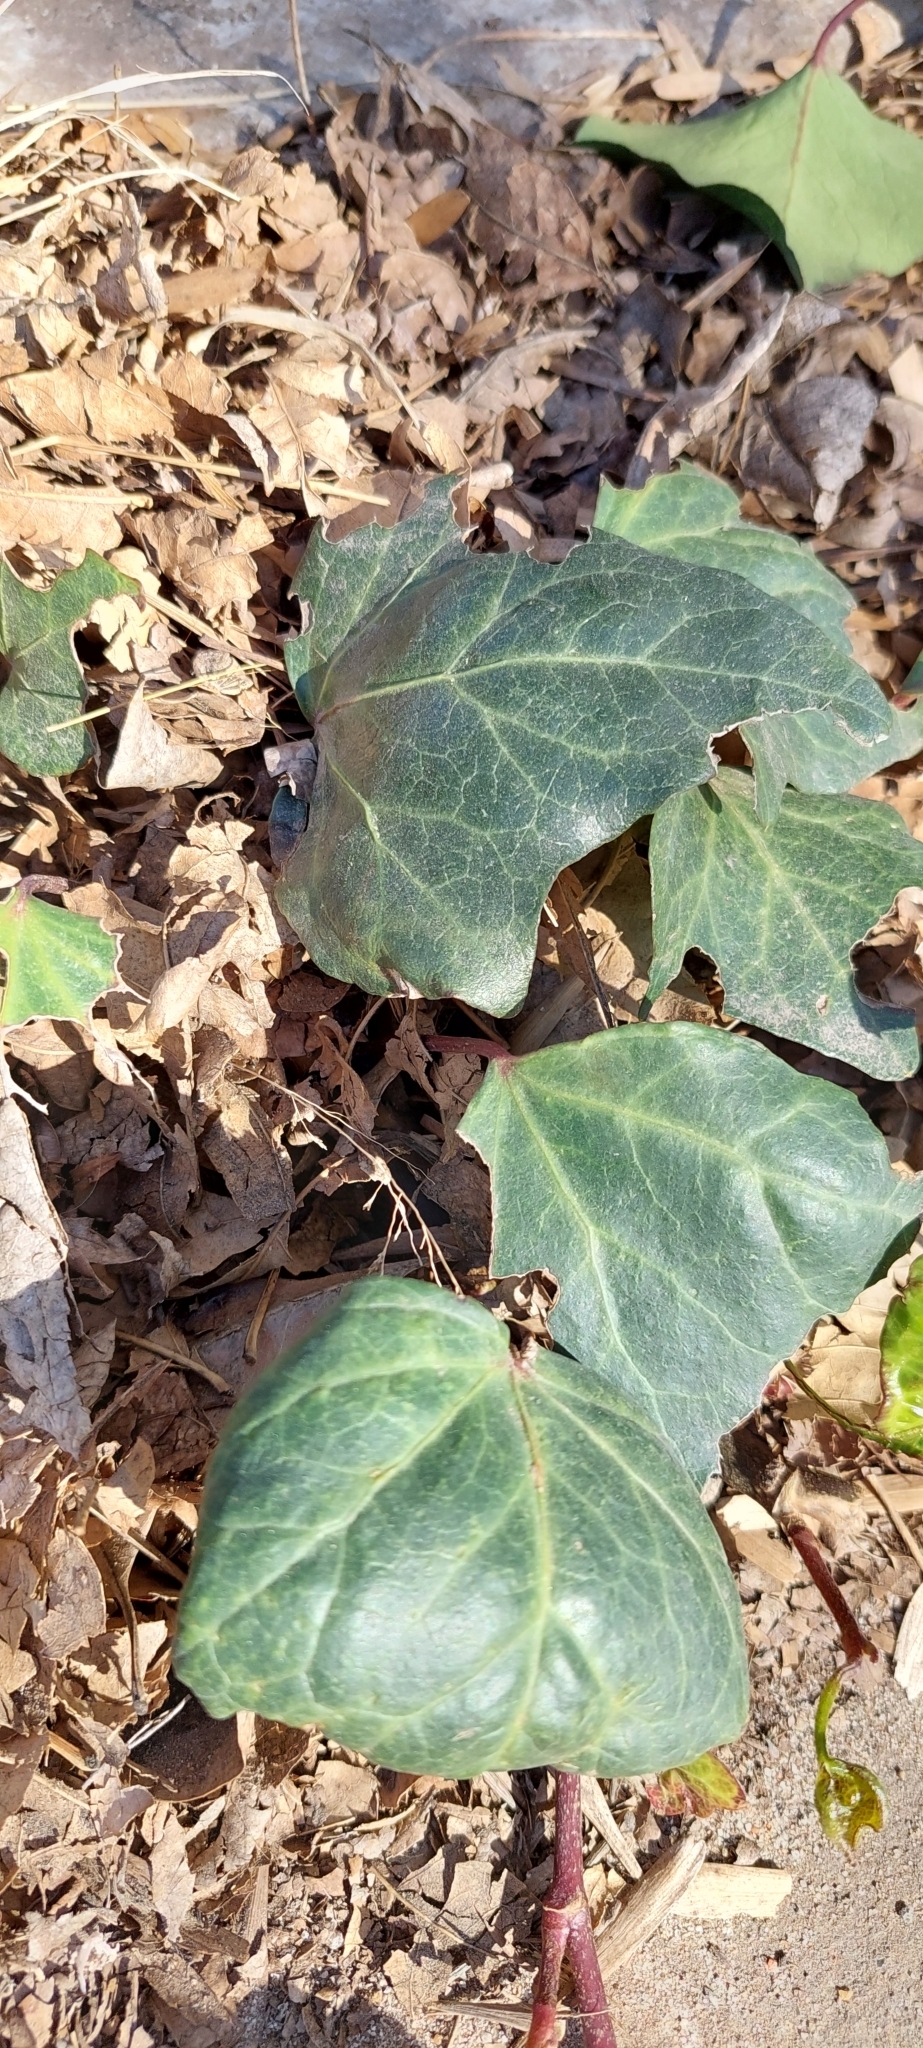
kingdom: Plantae
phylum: Tracheophyta
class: Magnoliopsida
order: Apiales
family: Araliaceae
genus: Hedera
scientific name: Hedera helix
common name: Ivy
